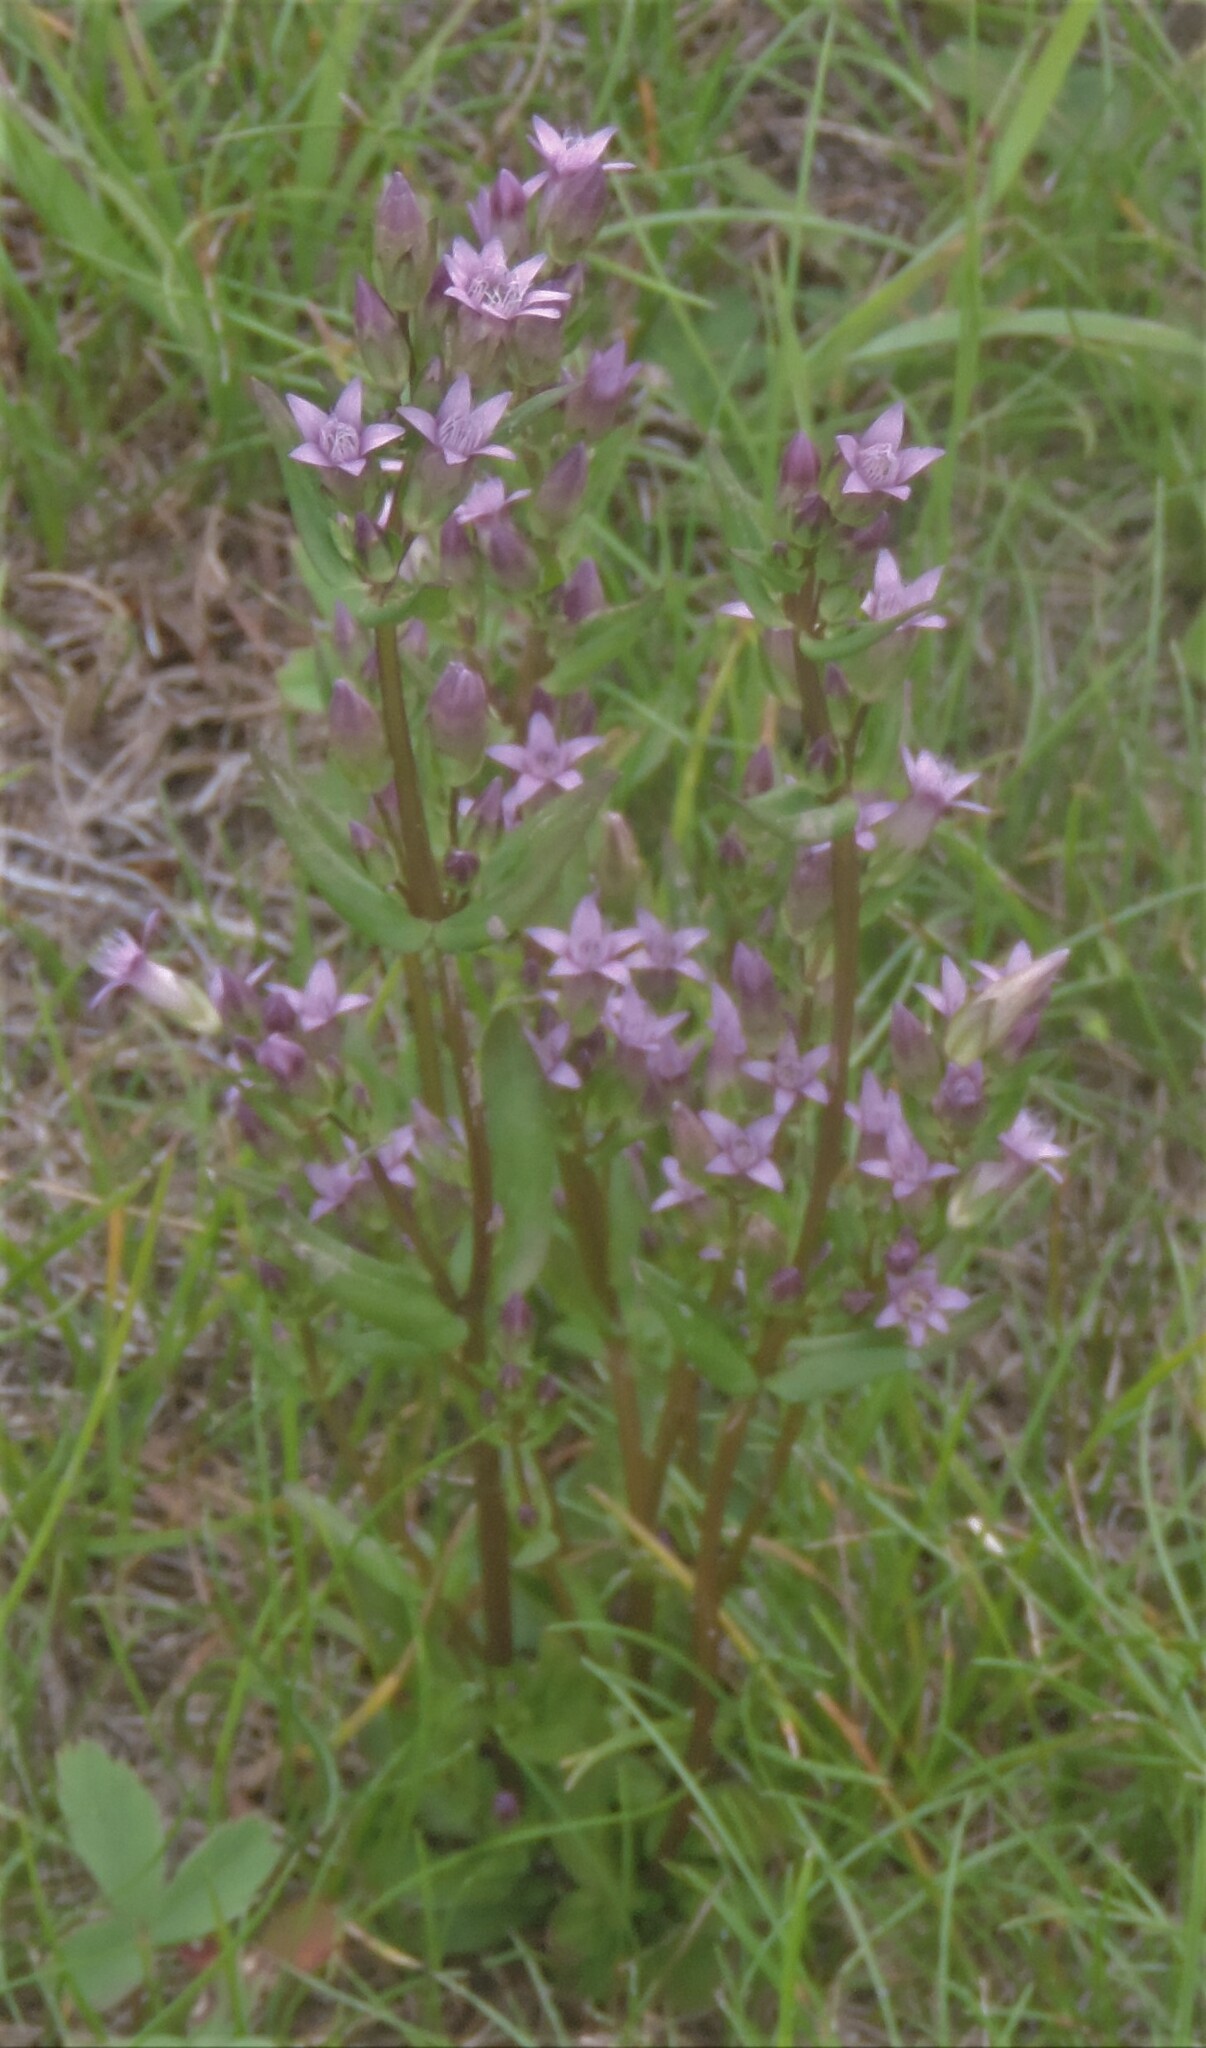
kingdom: Plantae
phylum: Tracheophyta
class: Magnoliopsida
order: Gentianales
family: Gentianaceae
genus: Gentianella
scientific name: Gentianella amarella
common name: Autumn gentian
